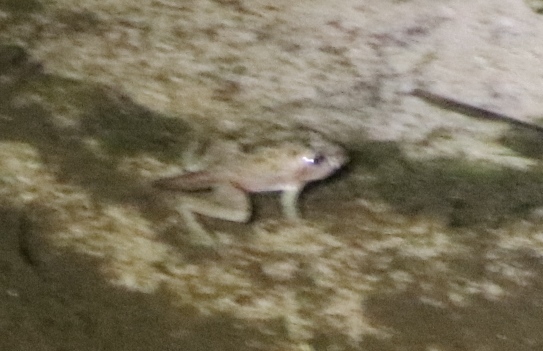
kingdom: Animalia
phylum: Chordata
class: Amphibia
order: Anura
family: Pyxicephalidae
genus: Strongylopus
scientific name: Strongylopus grayii
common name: Gray's stream frog
